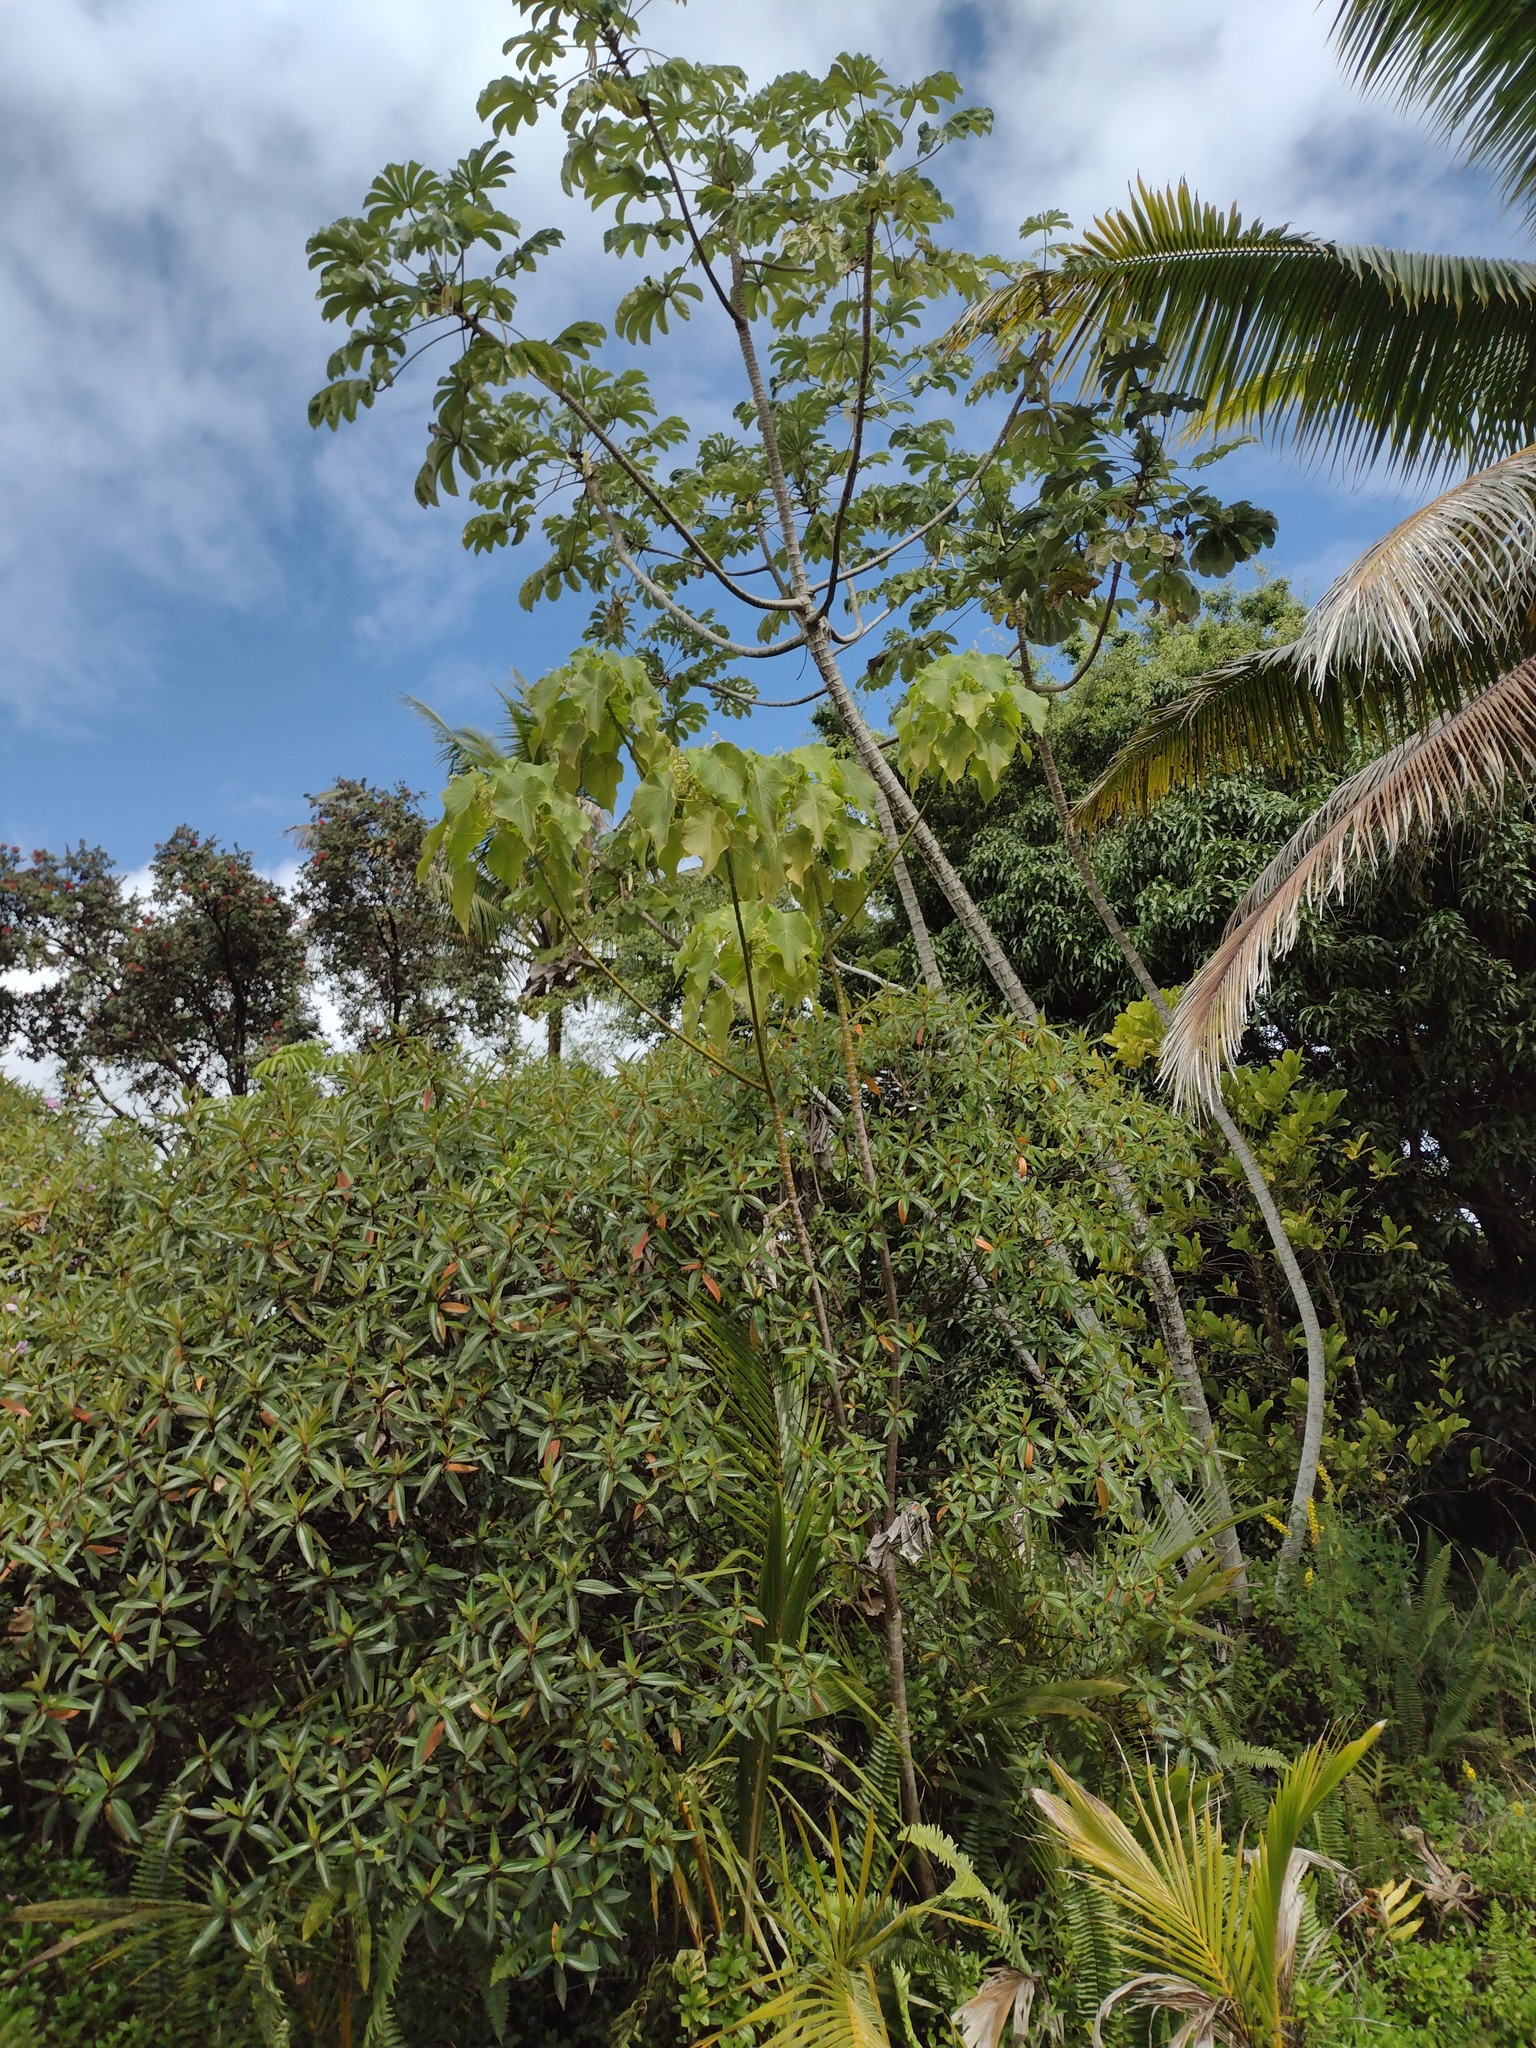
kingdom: Plantae
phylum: Tracheophyta
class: Magnoliopsida
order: Malpighiales
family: Euphorbiaceae
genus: Macaranga
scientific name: Macaranga tanarius
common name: Parasol leaf tree
